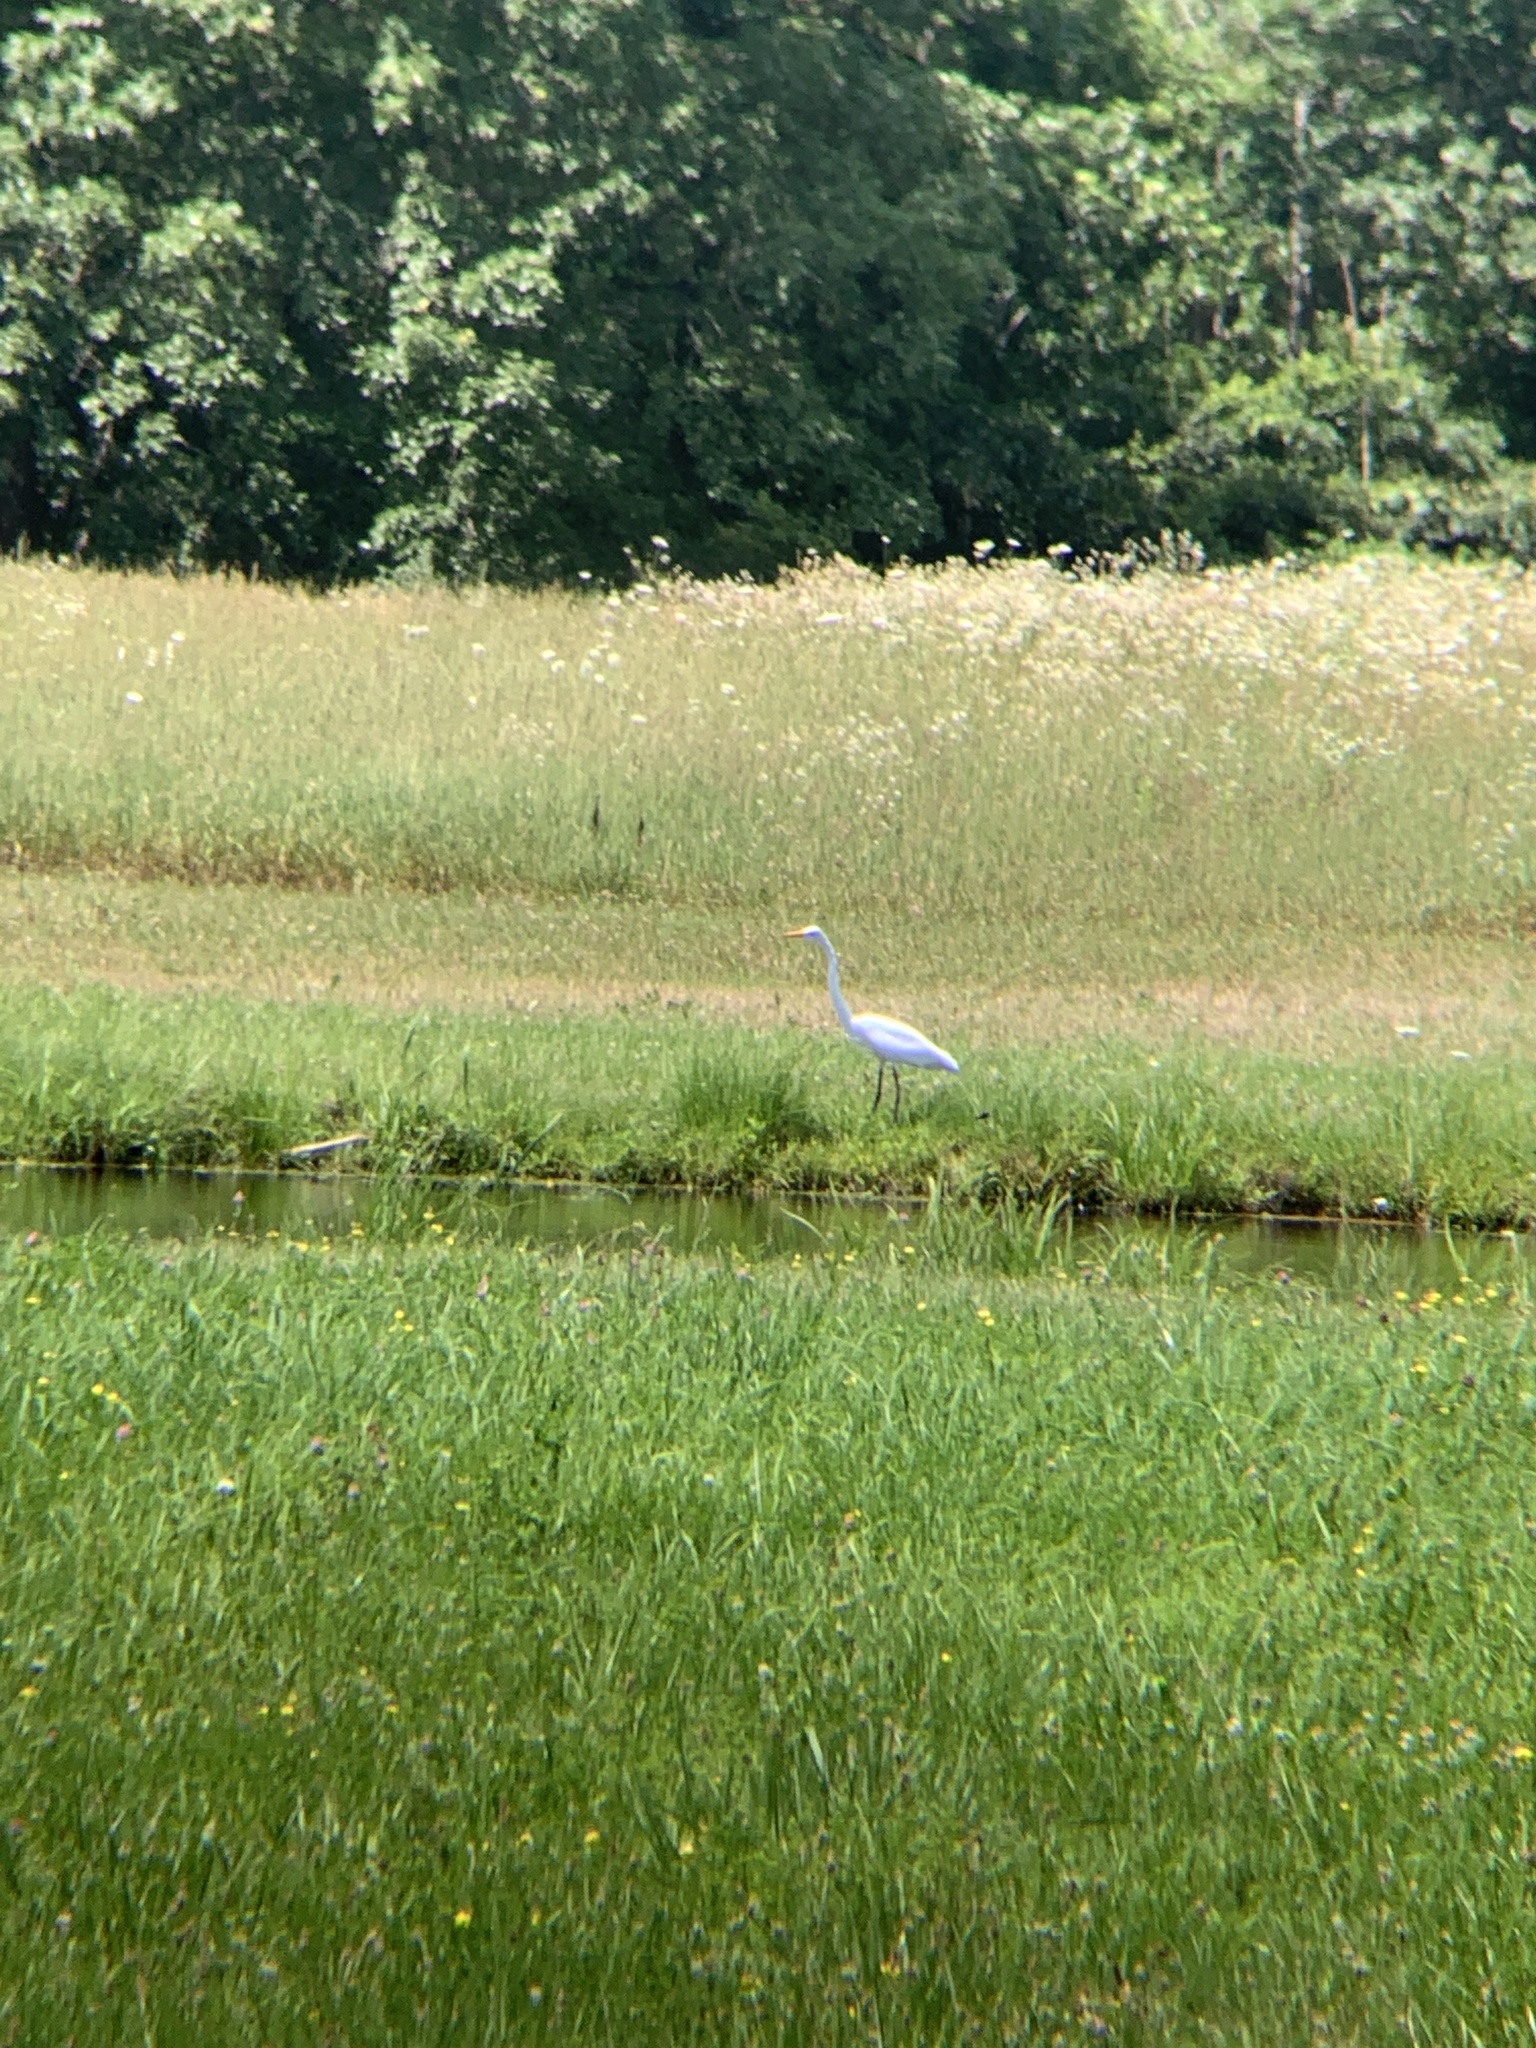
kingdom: Animalia
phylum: Chordata
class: Aves
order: Pelecaniformes
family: Ardeidae
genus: Ardea
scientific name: Ardea alba
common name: Great egret
